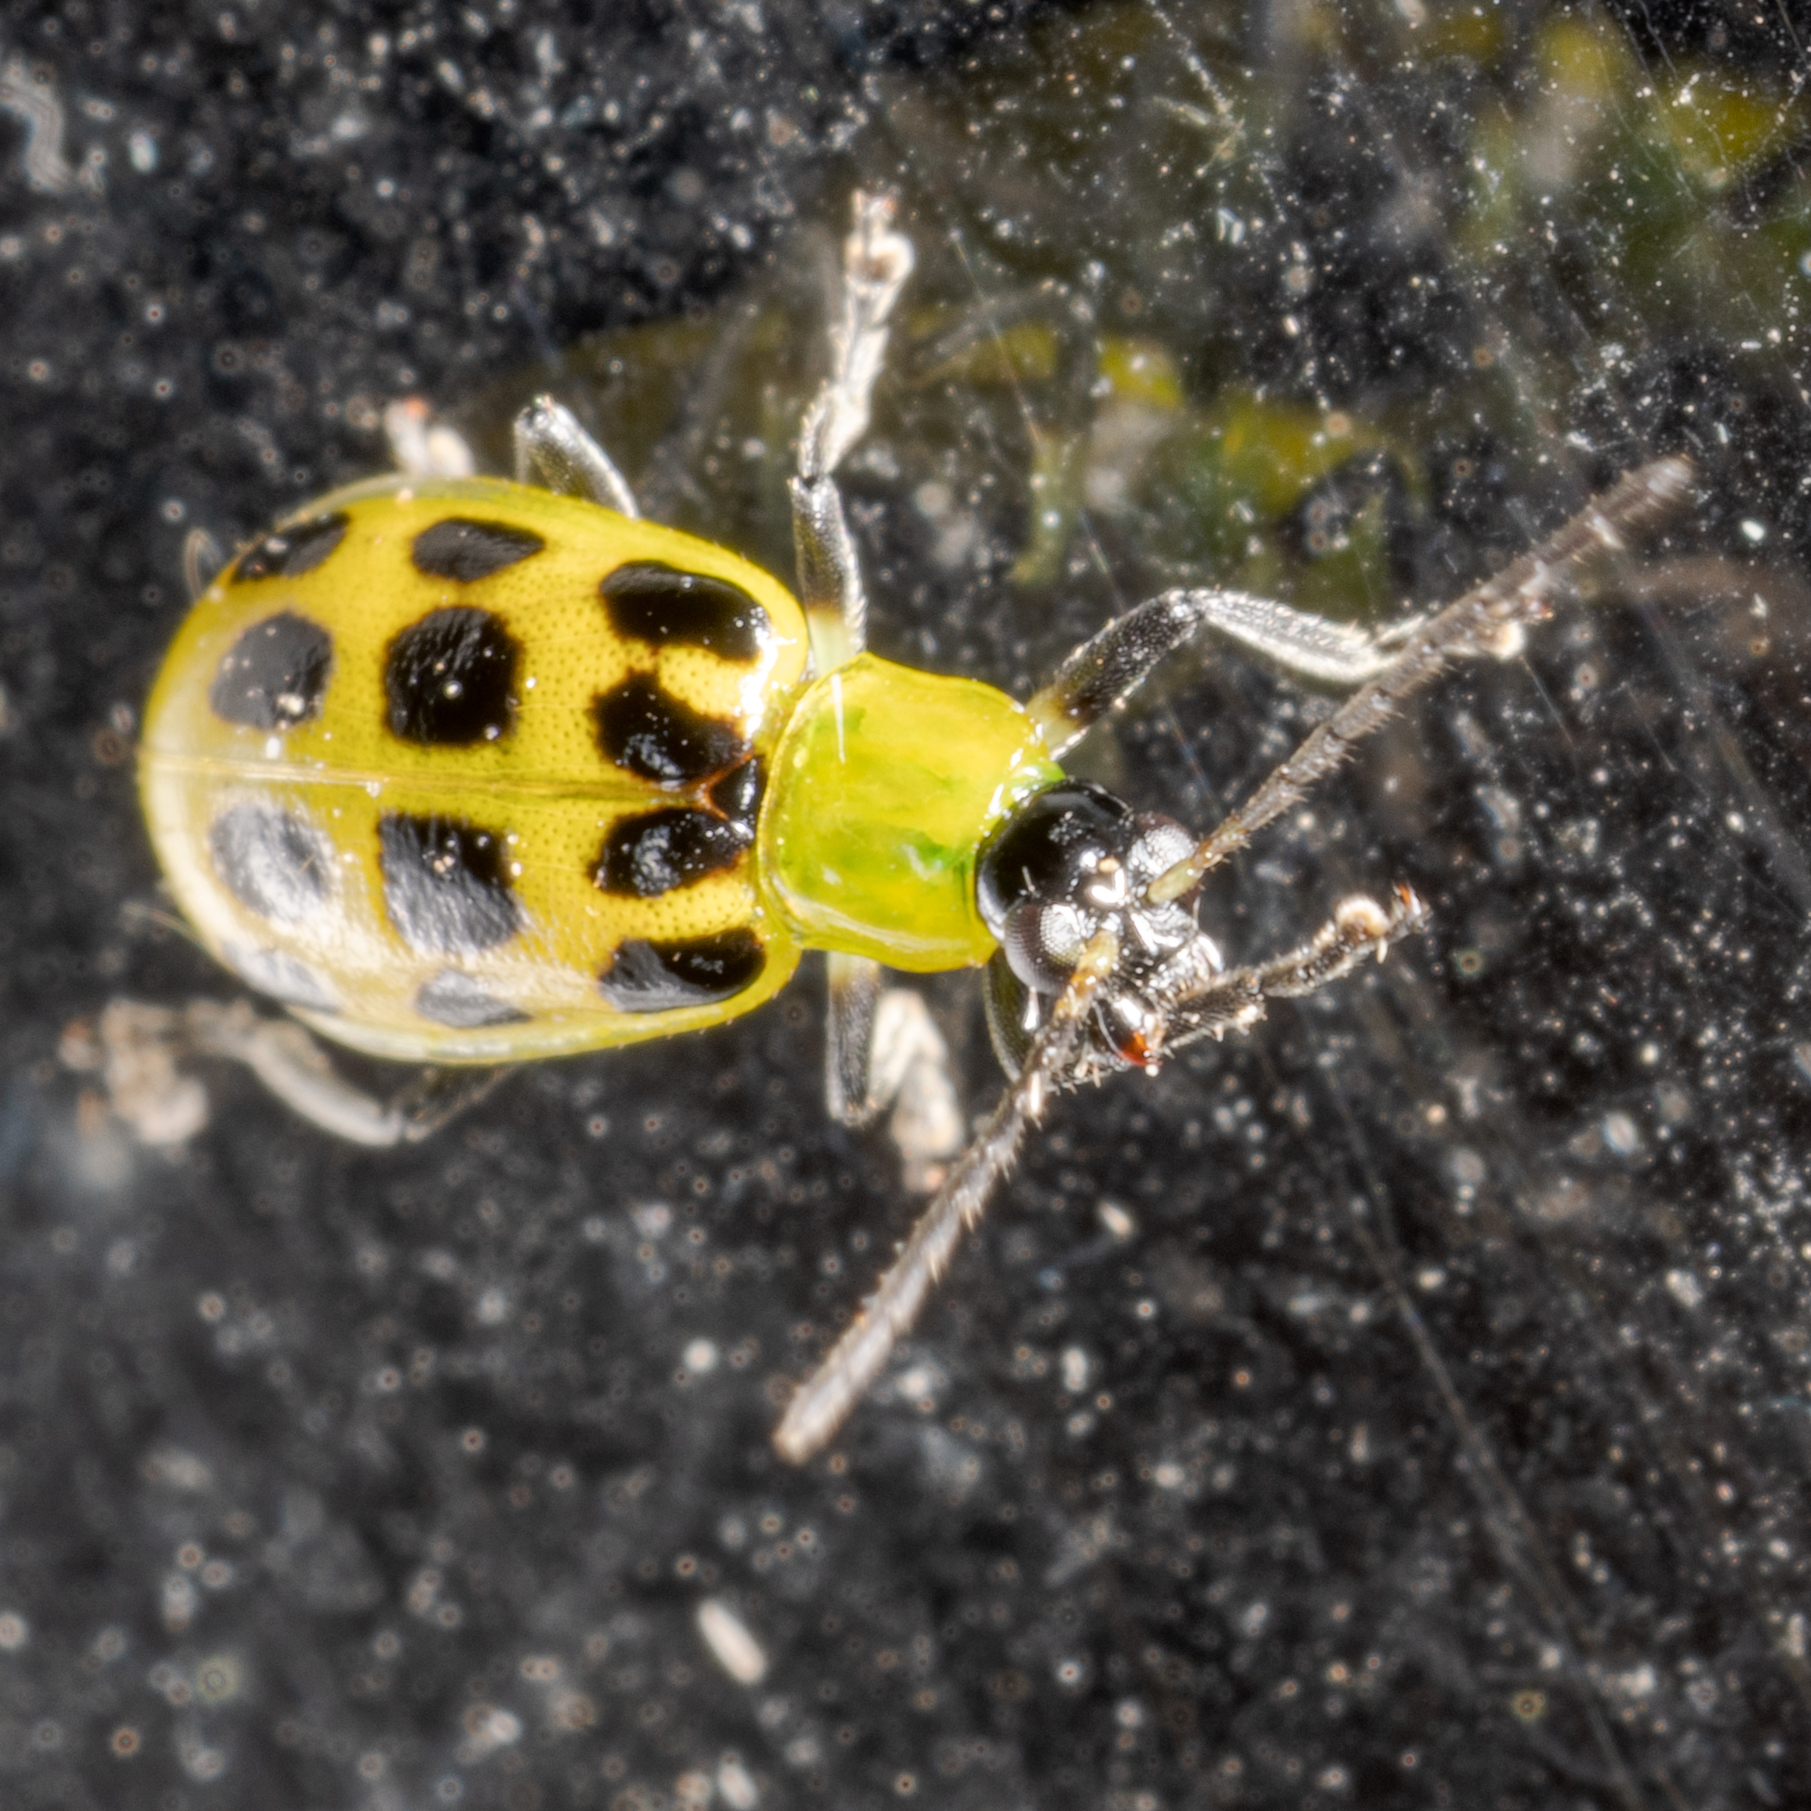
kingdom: Animalia
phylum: Arthropoda
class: Insecta
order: Coleoptera
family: Chrysomelidae
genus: Diabrotica
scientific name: Diabrotica undecimpunctata
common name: Spotted cucumber beetle
